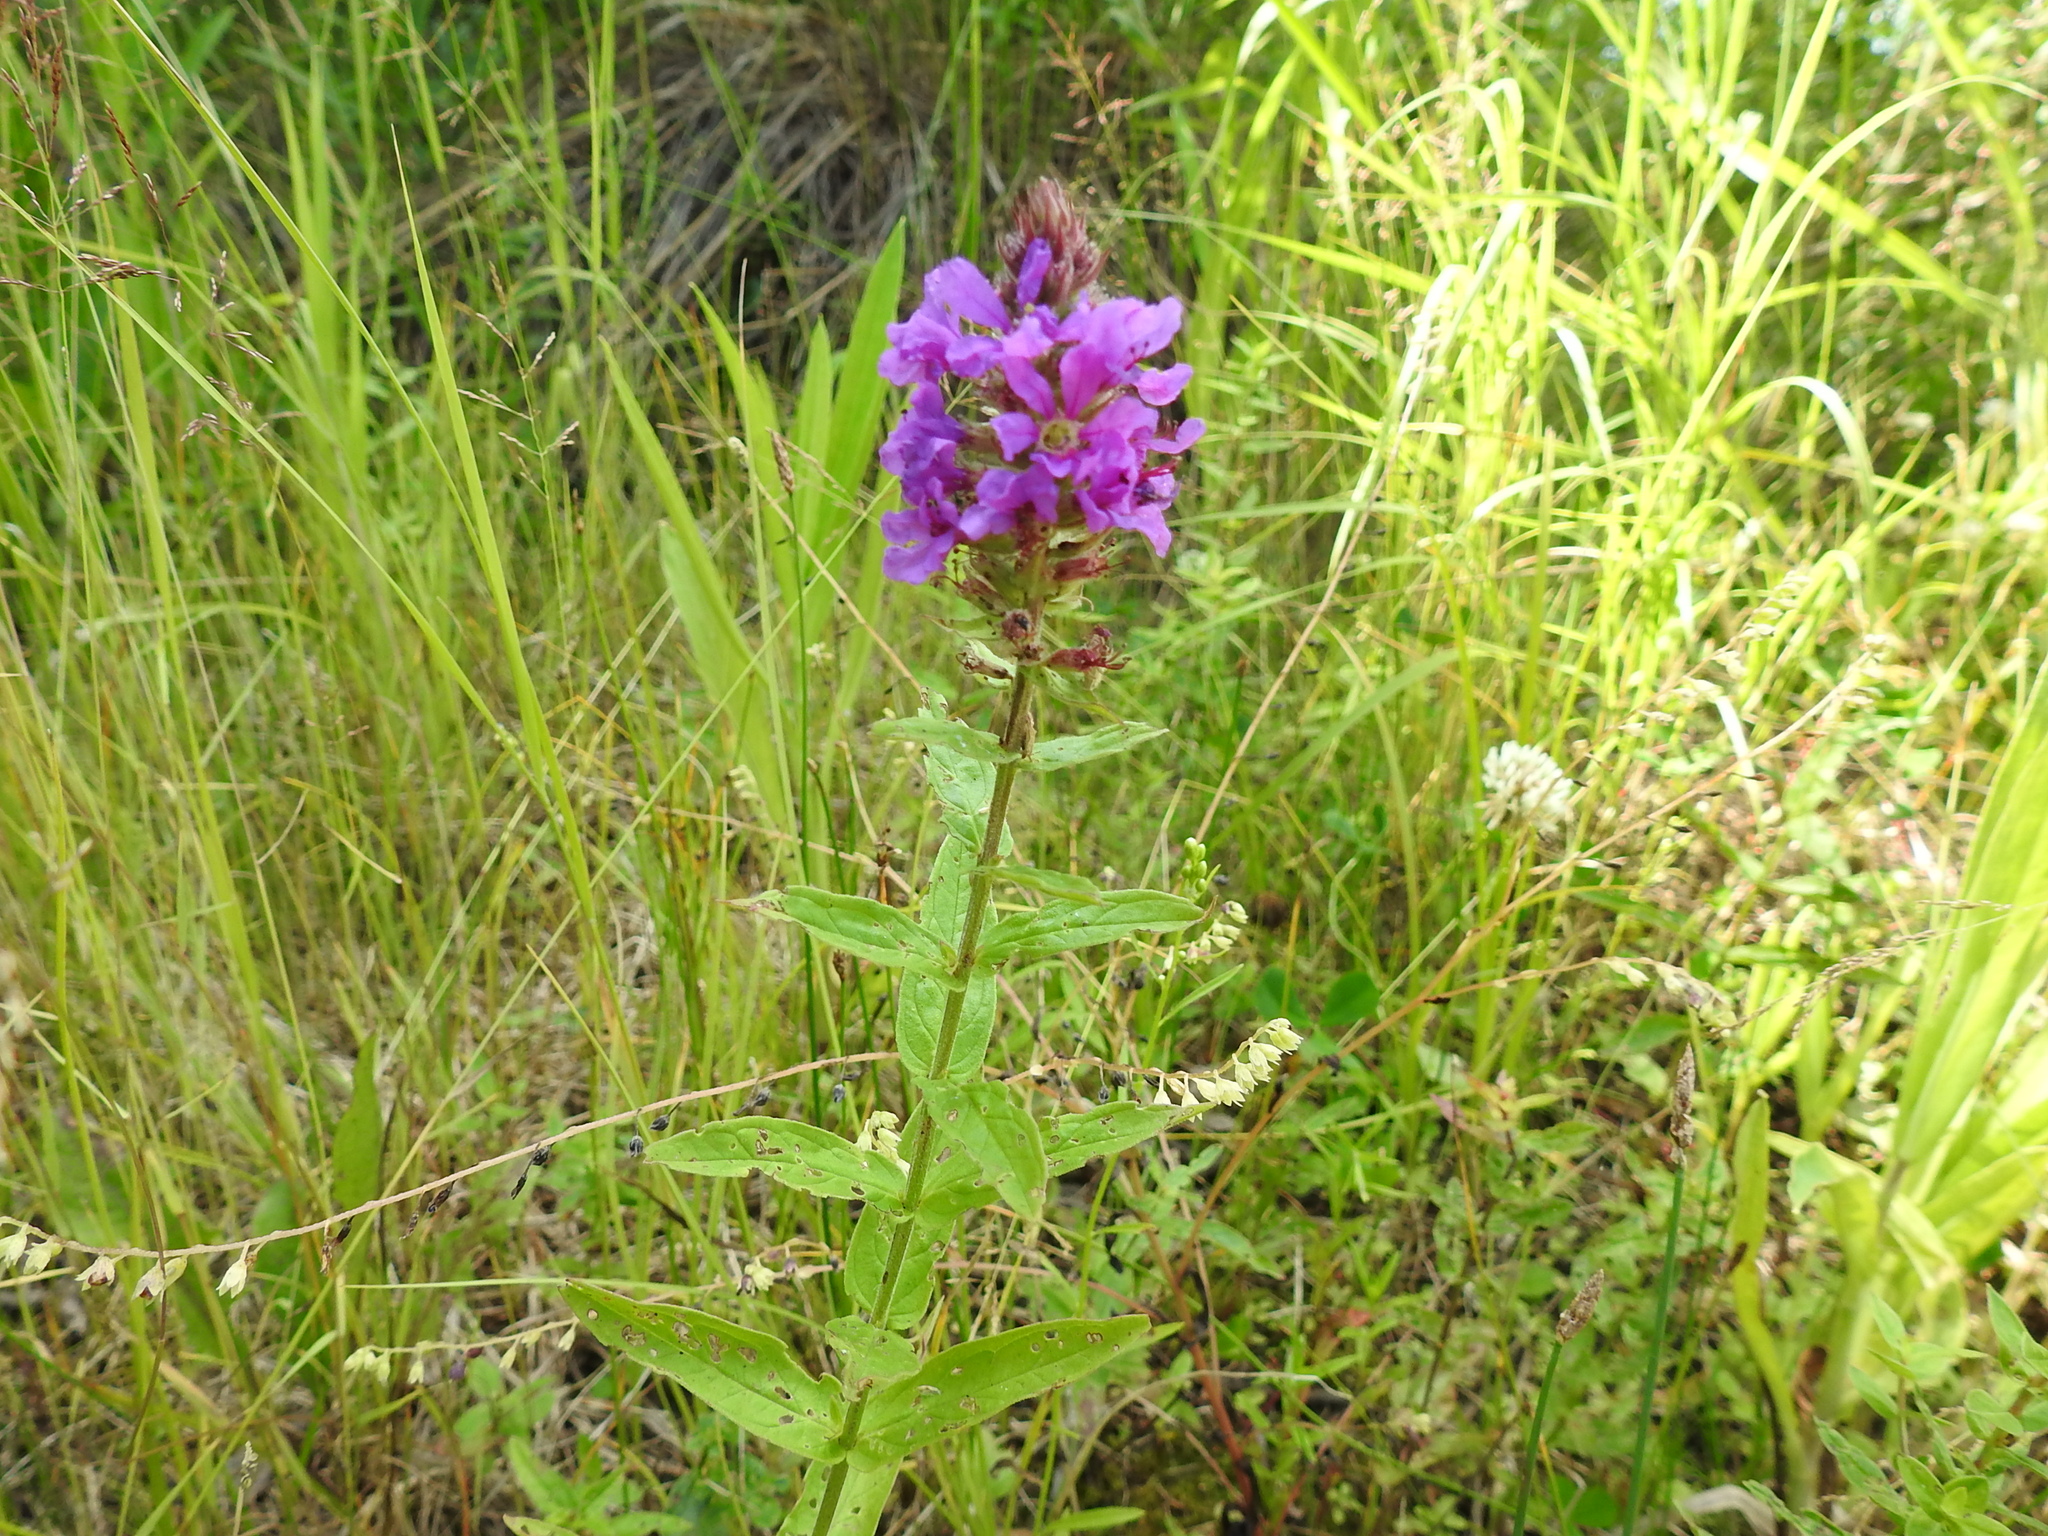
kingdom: Plantae
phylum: Tracheophyta
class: Magnoliopsida
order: Myrtales
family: Lythraceae
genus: Lythrum
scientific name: Lythrum salicaria
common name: Purple loosestrife
